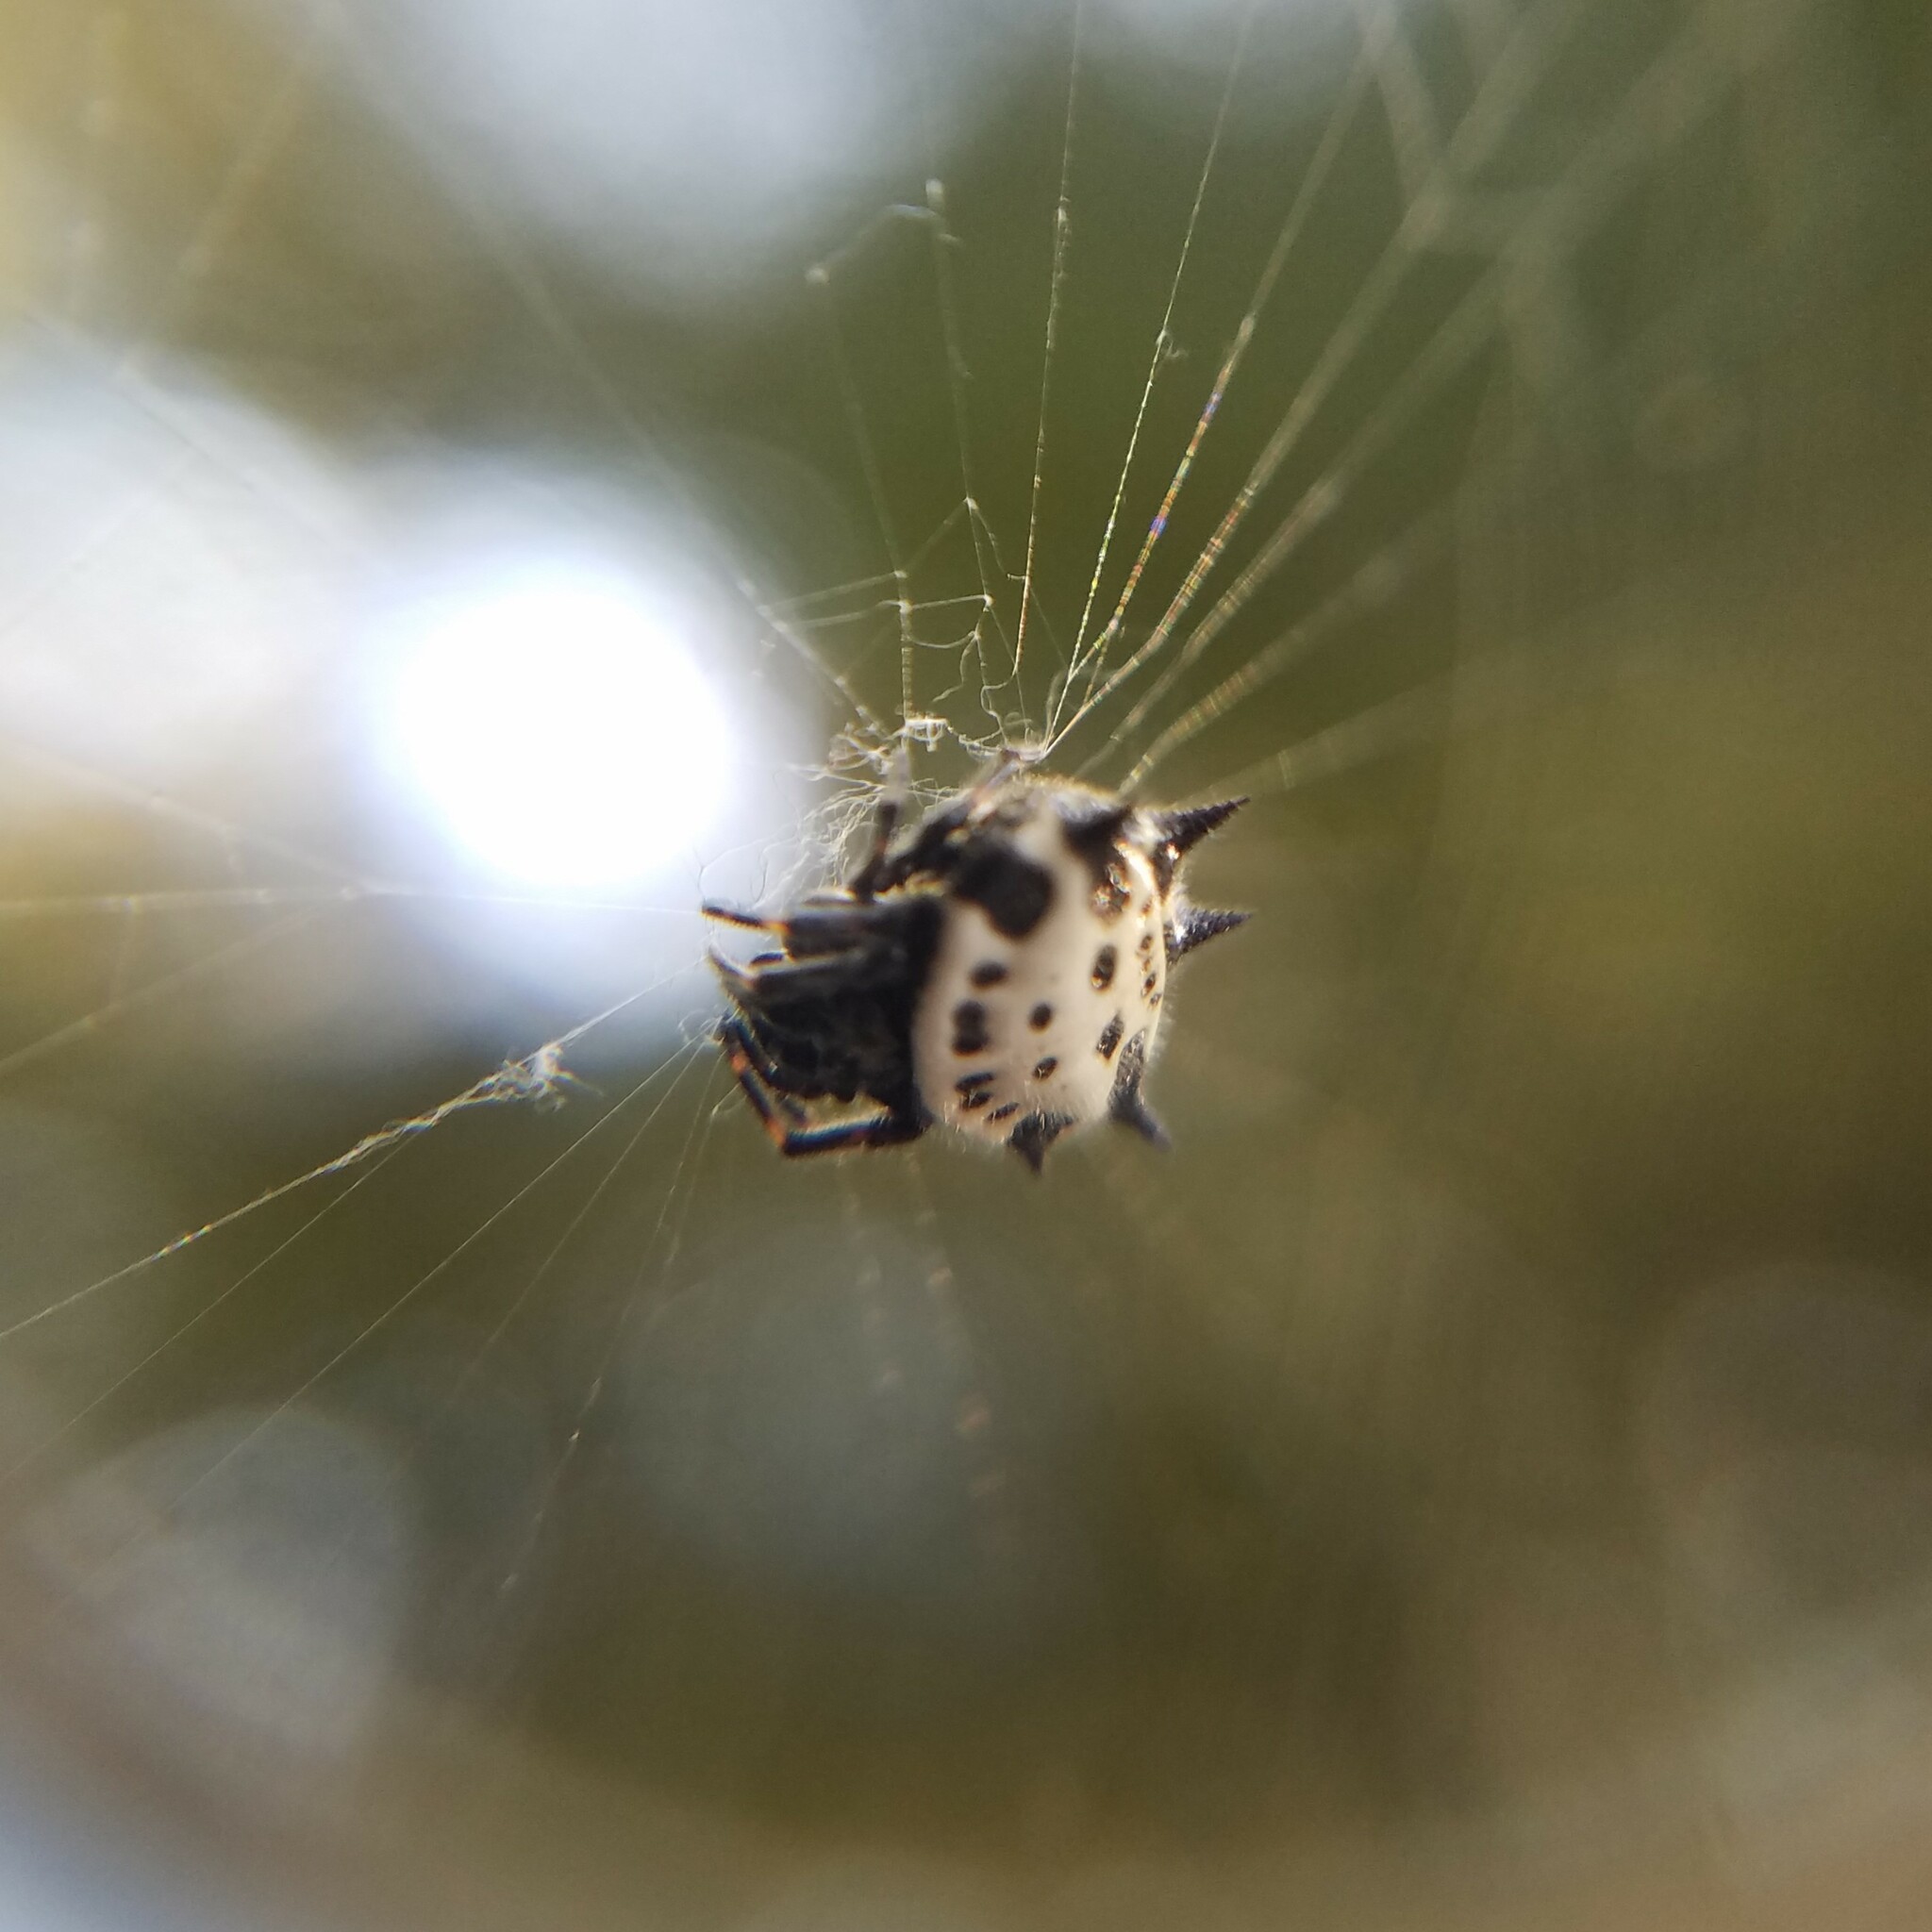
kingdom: Animalia
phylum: Arthropoda
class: Arachnida
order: Araneae
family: Araneidae
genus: Gasteracantha
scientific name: Gasteracantha cancriformis
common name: Orb weavers
